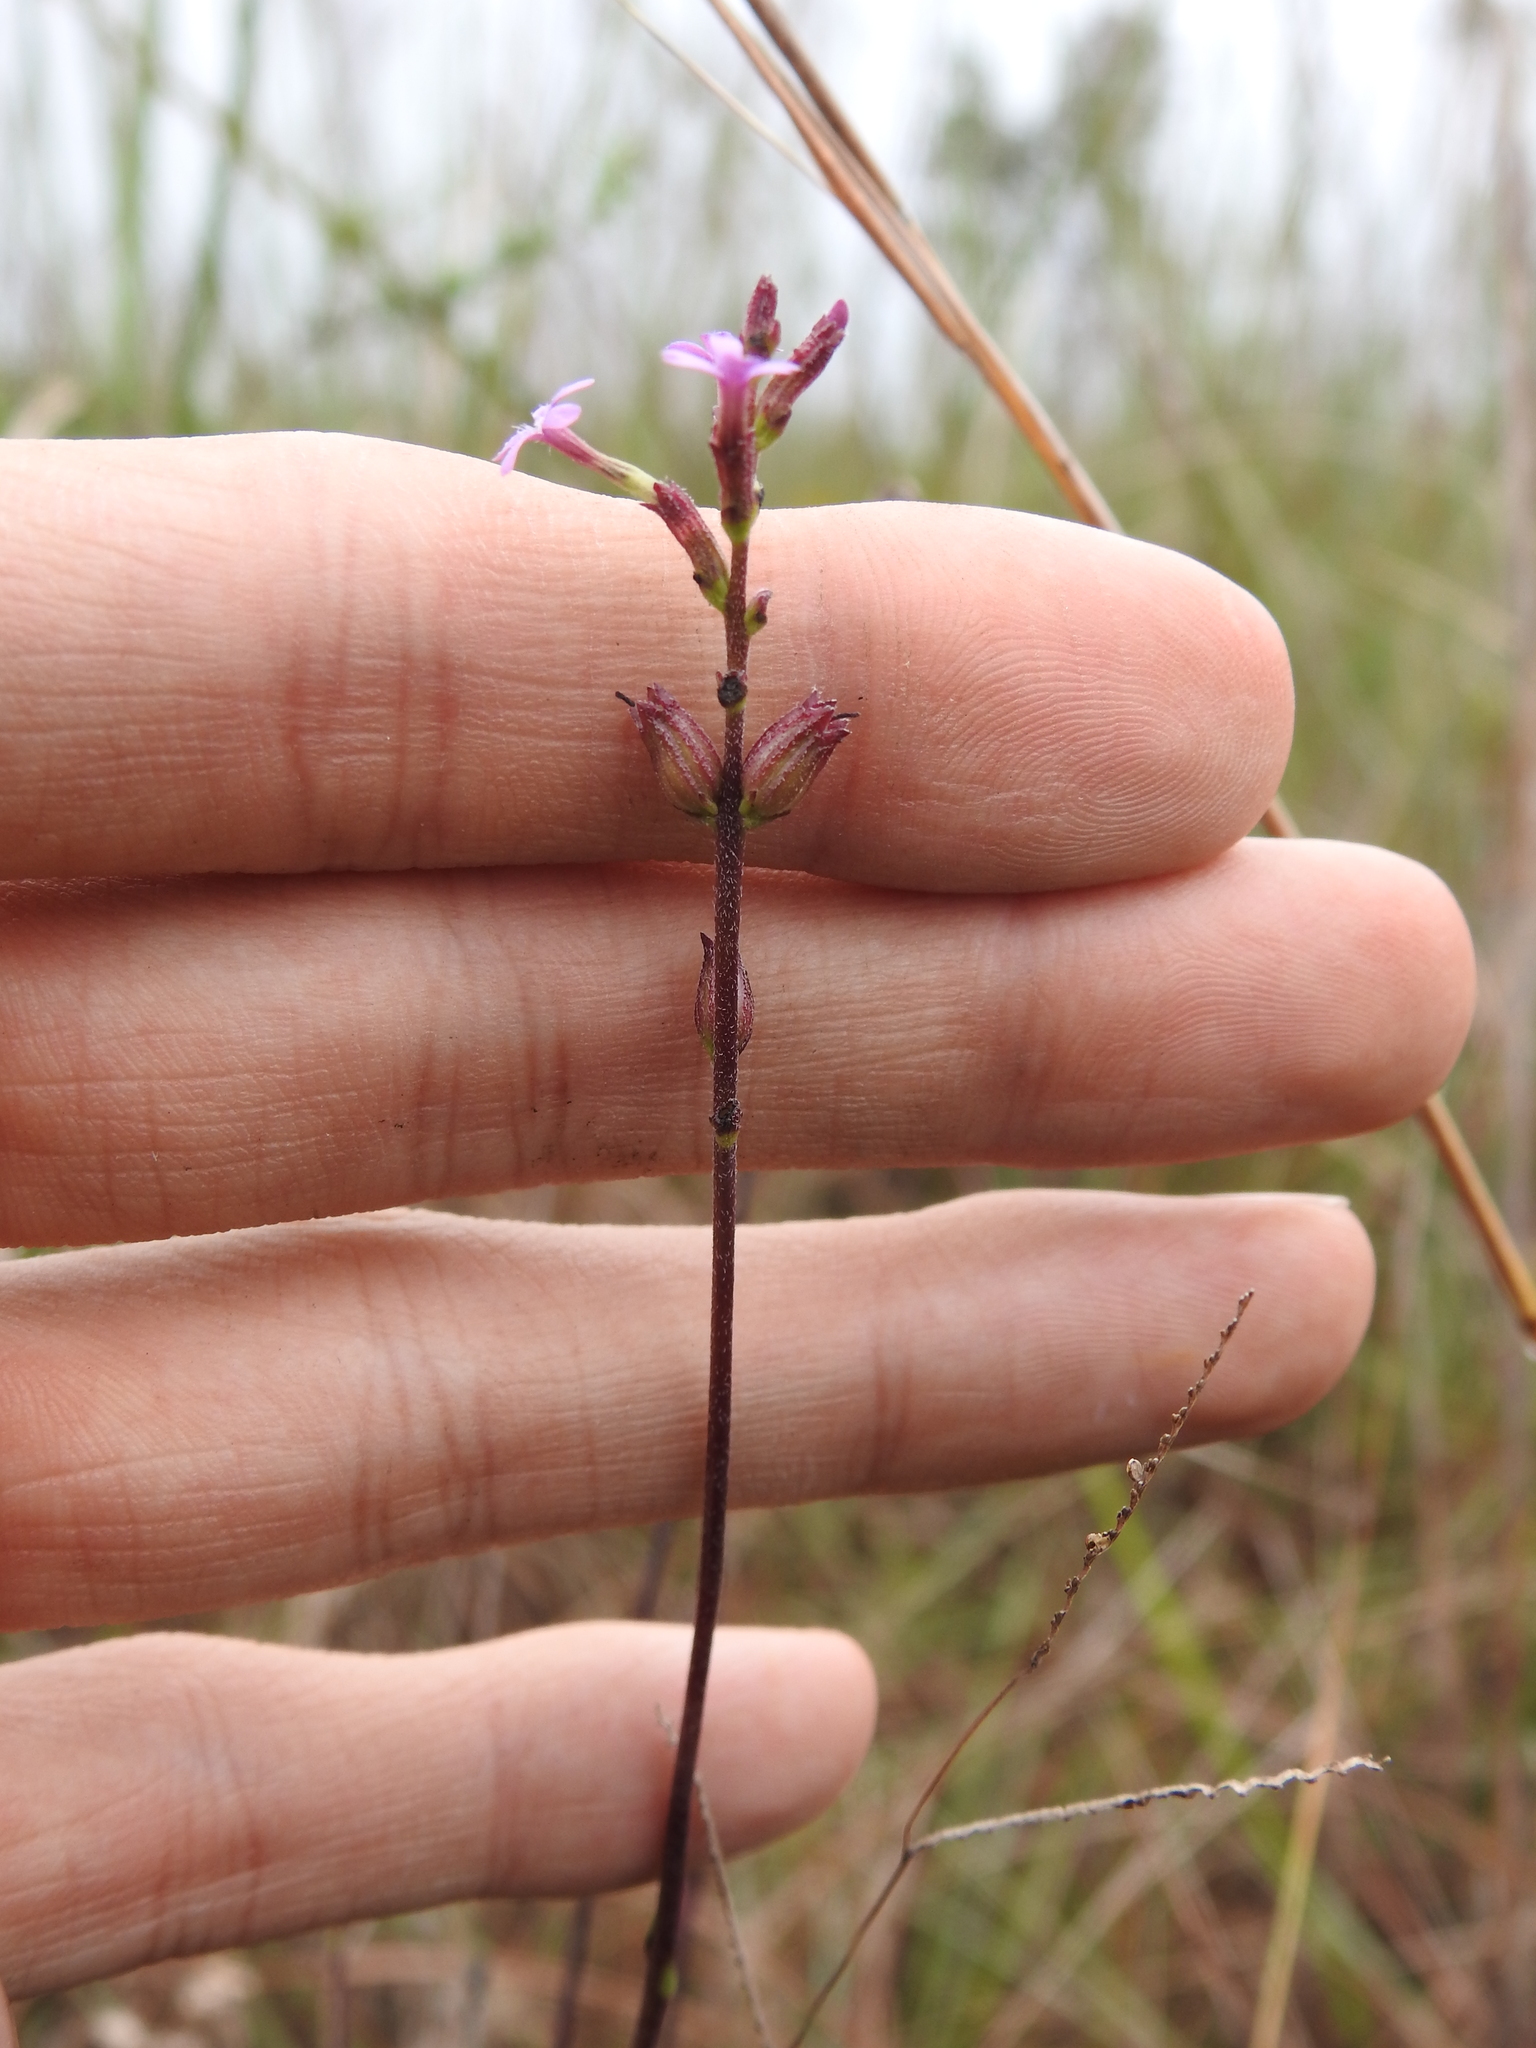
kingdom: Plantae
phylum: Tracheophyta
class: Magnoliopsida
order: Lamiales
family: Orobanchaceae
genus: Buchnera
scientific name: Buchnera floridana
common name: Florida bluehearts
